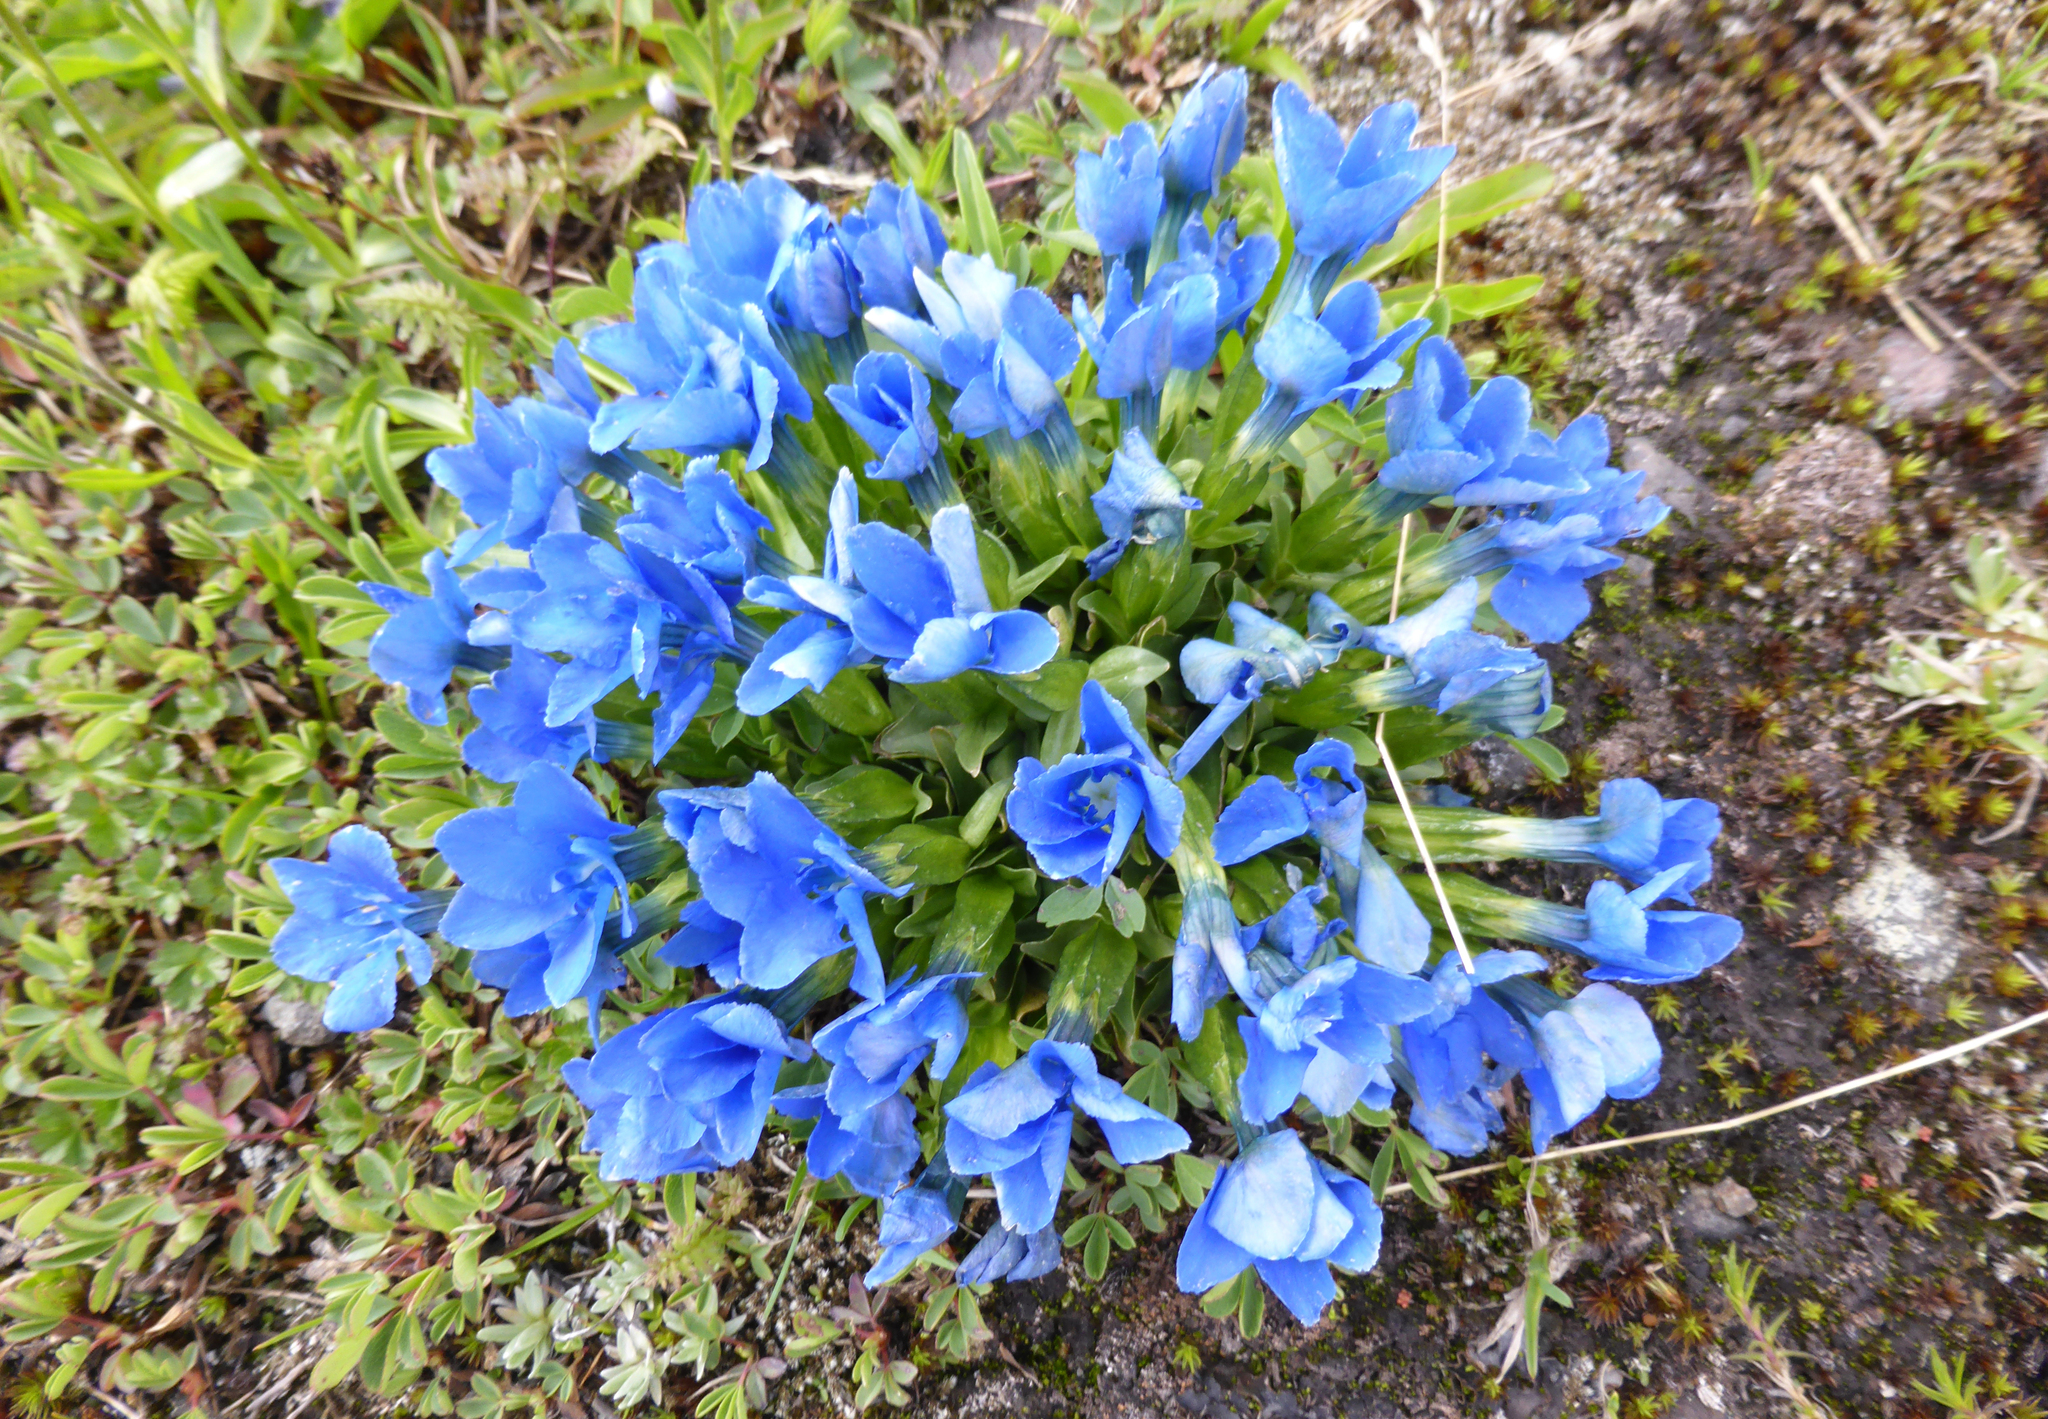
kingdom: Plantae
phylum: Tracheophyta
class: Magnoliopsida
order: Gentianales
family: Gentianaceae
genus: Gentiana
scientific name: Gentiana verna
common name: Spring gentian
